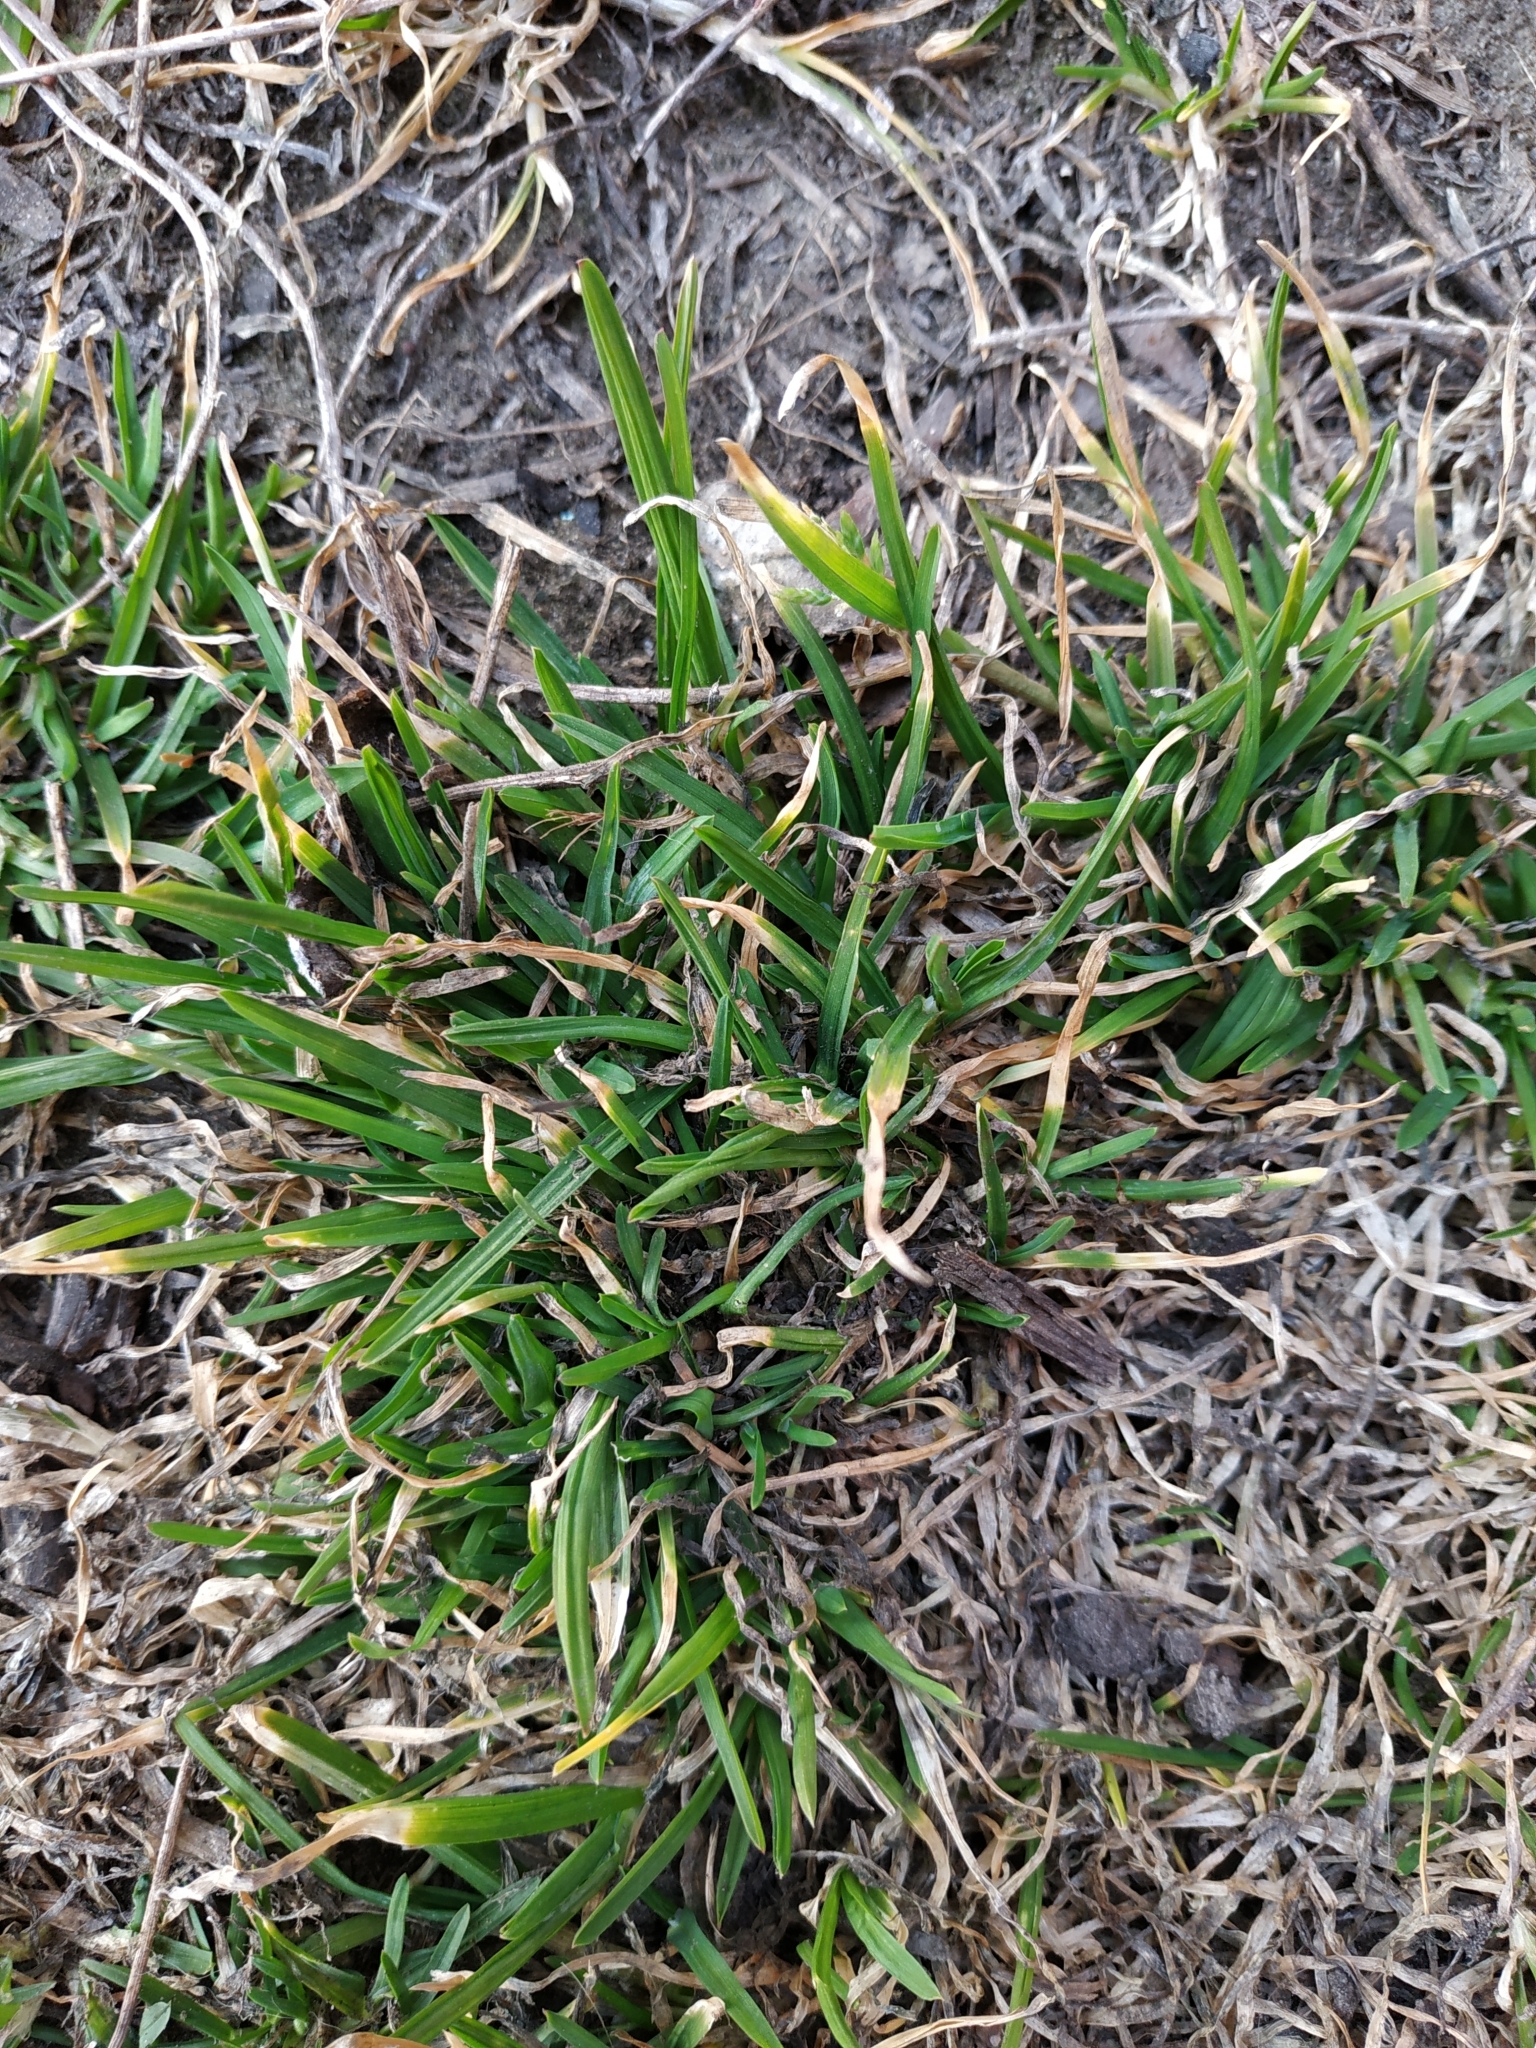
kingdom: Plantae
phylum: Tracheophyta
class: Liliopsida
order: Poales
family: Poaceae
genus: Poa
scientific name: Poa annua
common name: Annual bluegrass
